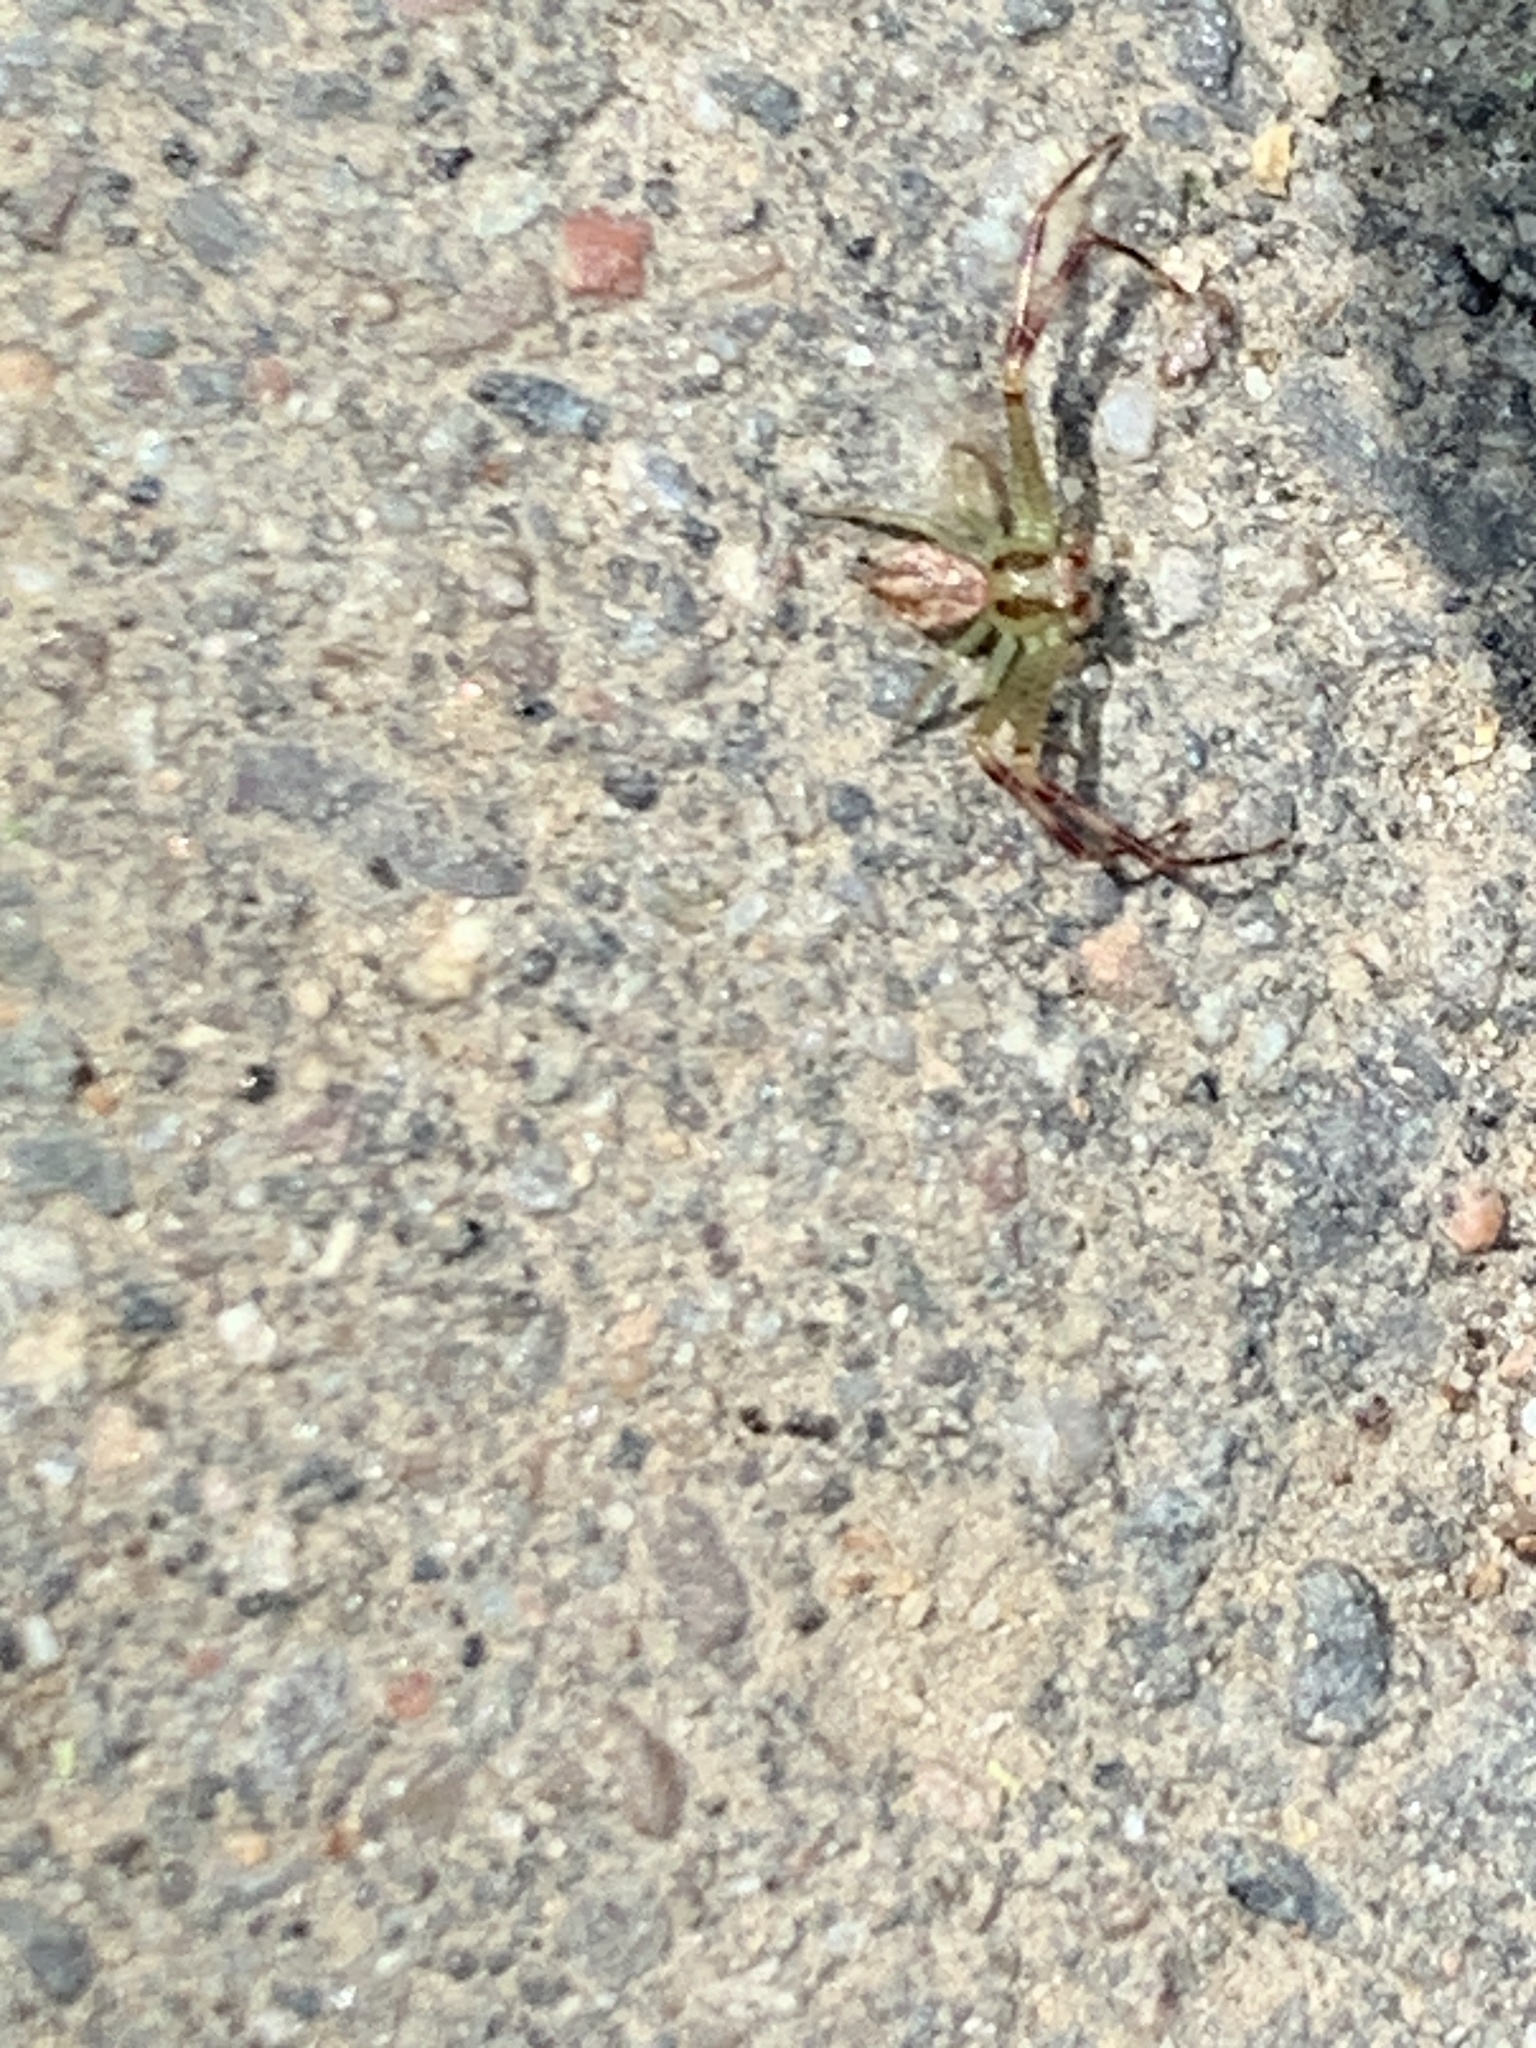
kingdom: Animalia
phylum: Arthropoda
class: Arachnida
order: Araneae
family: Thomisidae
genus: Mecaphesa
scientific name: Mecaphesa asperata
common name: Crab spiders
